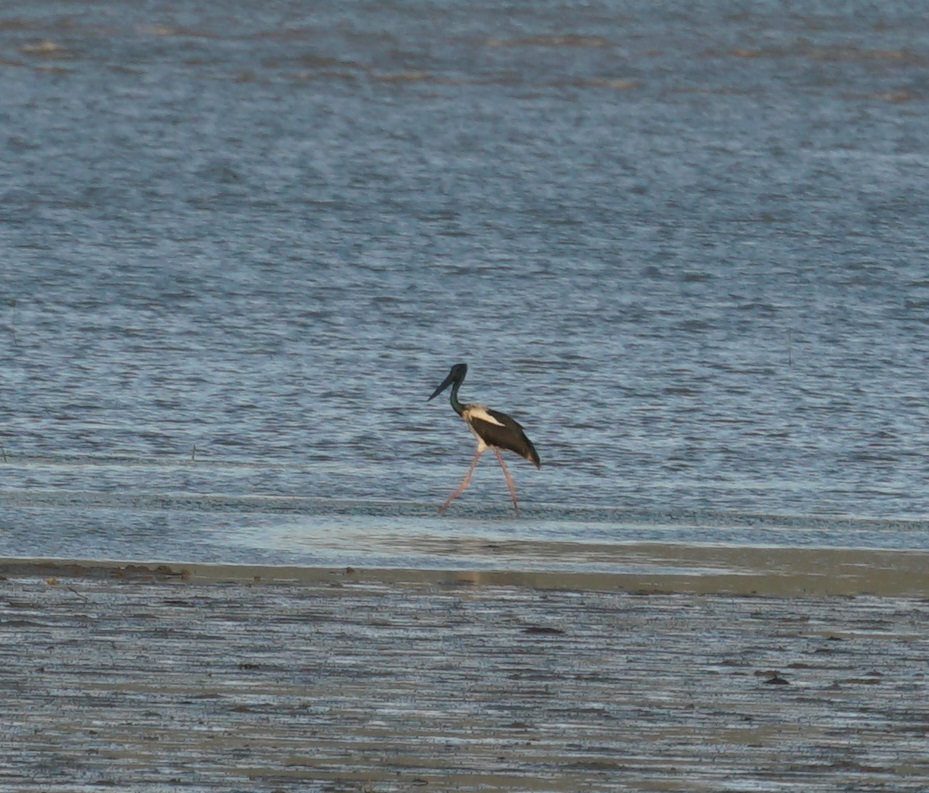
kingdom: Animalia
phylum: Chordata
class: Aves
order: Ciconiiformes
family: Ciconiidae
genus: Ephippiorhynchus
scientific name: Ephippiorhynchus asiaticus
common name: Black-necked stork
